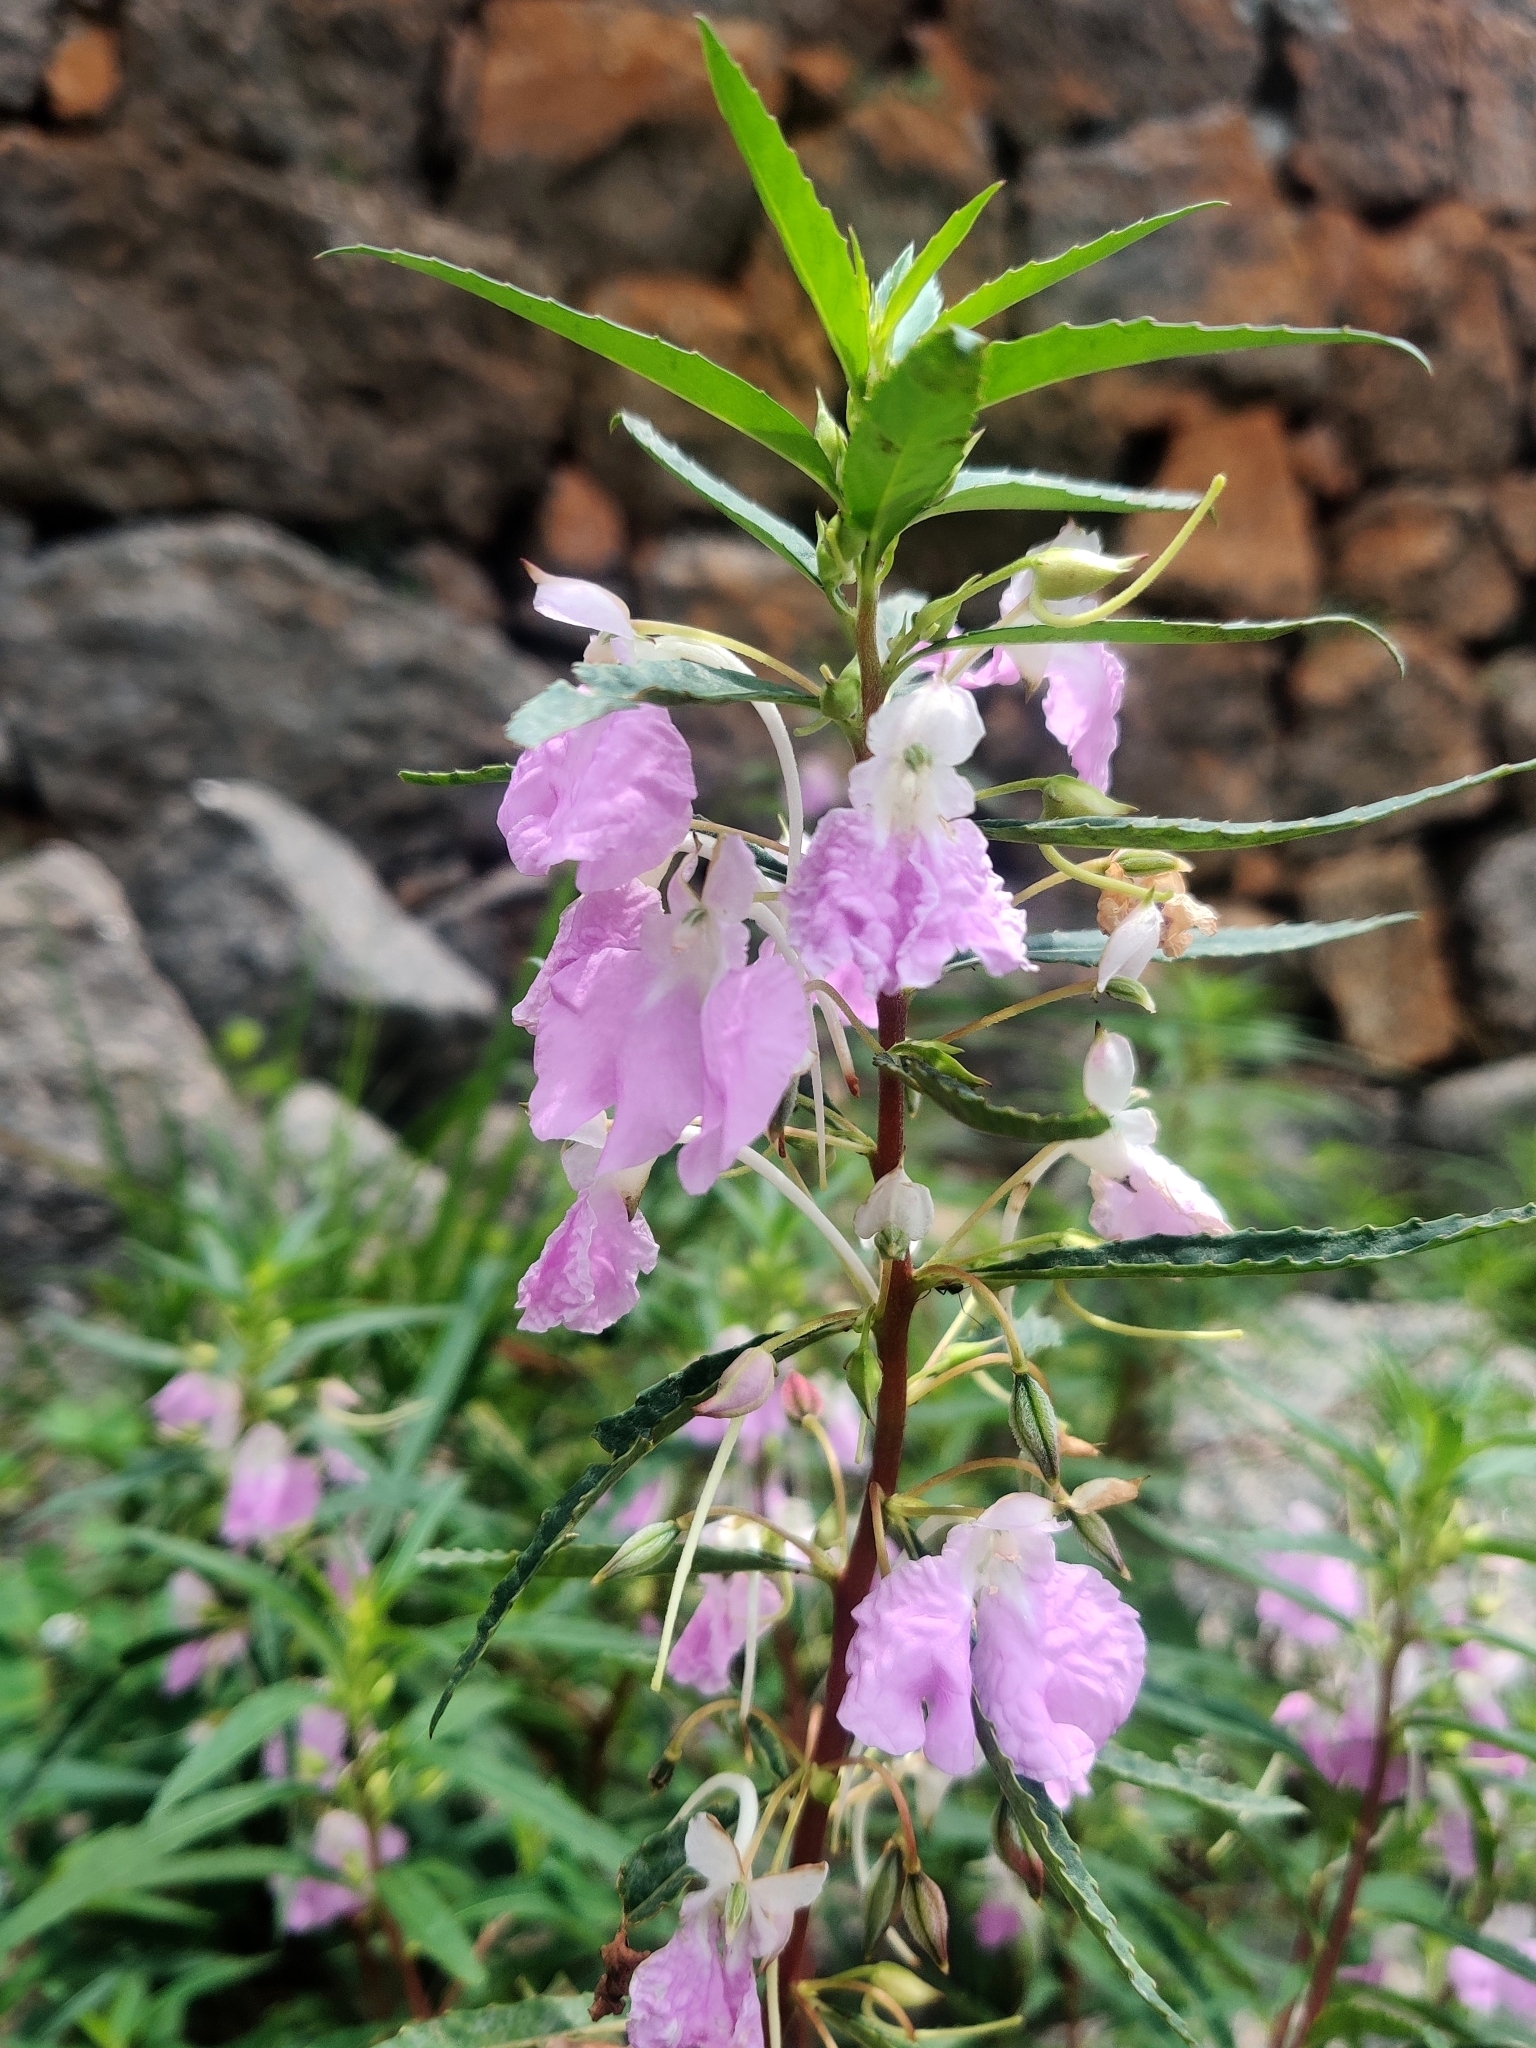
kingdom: Plantae
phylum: Tracheophyta
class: Magnoliopsida
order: Ericales
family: Balsaminaceae
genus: Impatiens
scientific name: Impatiens balsamina
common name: Balsam
